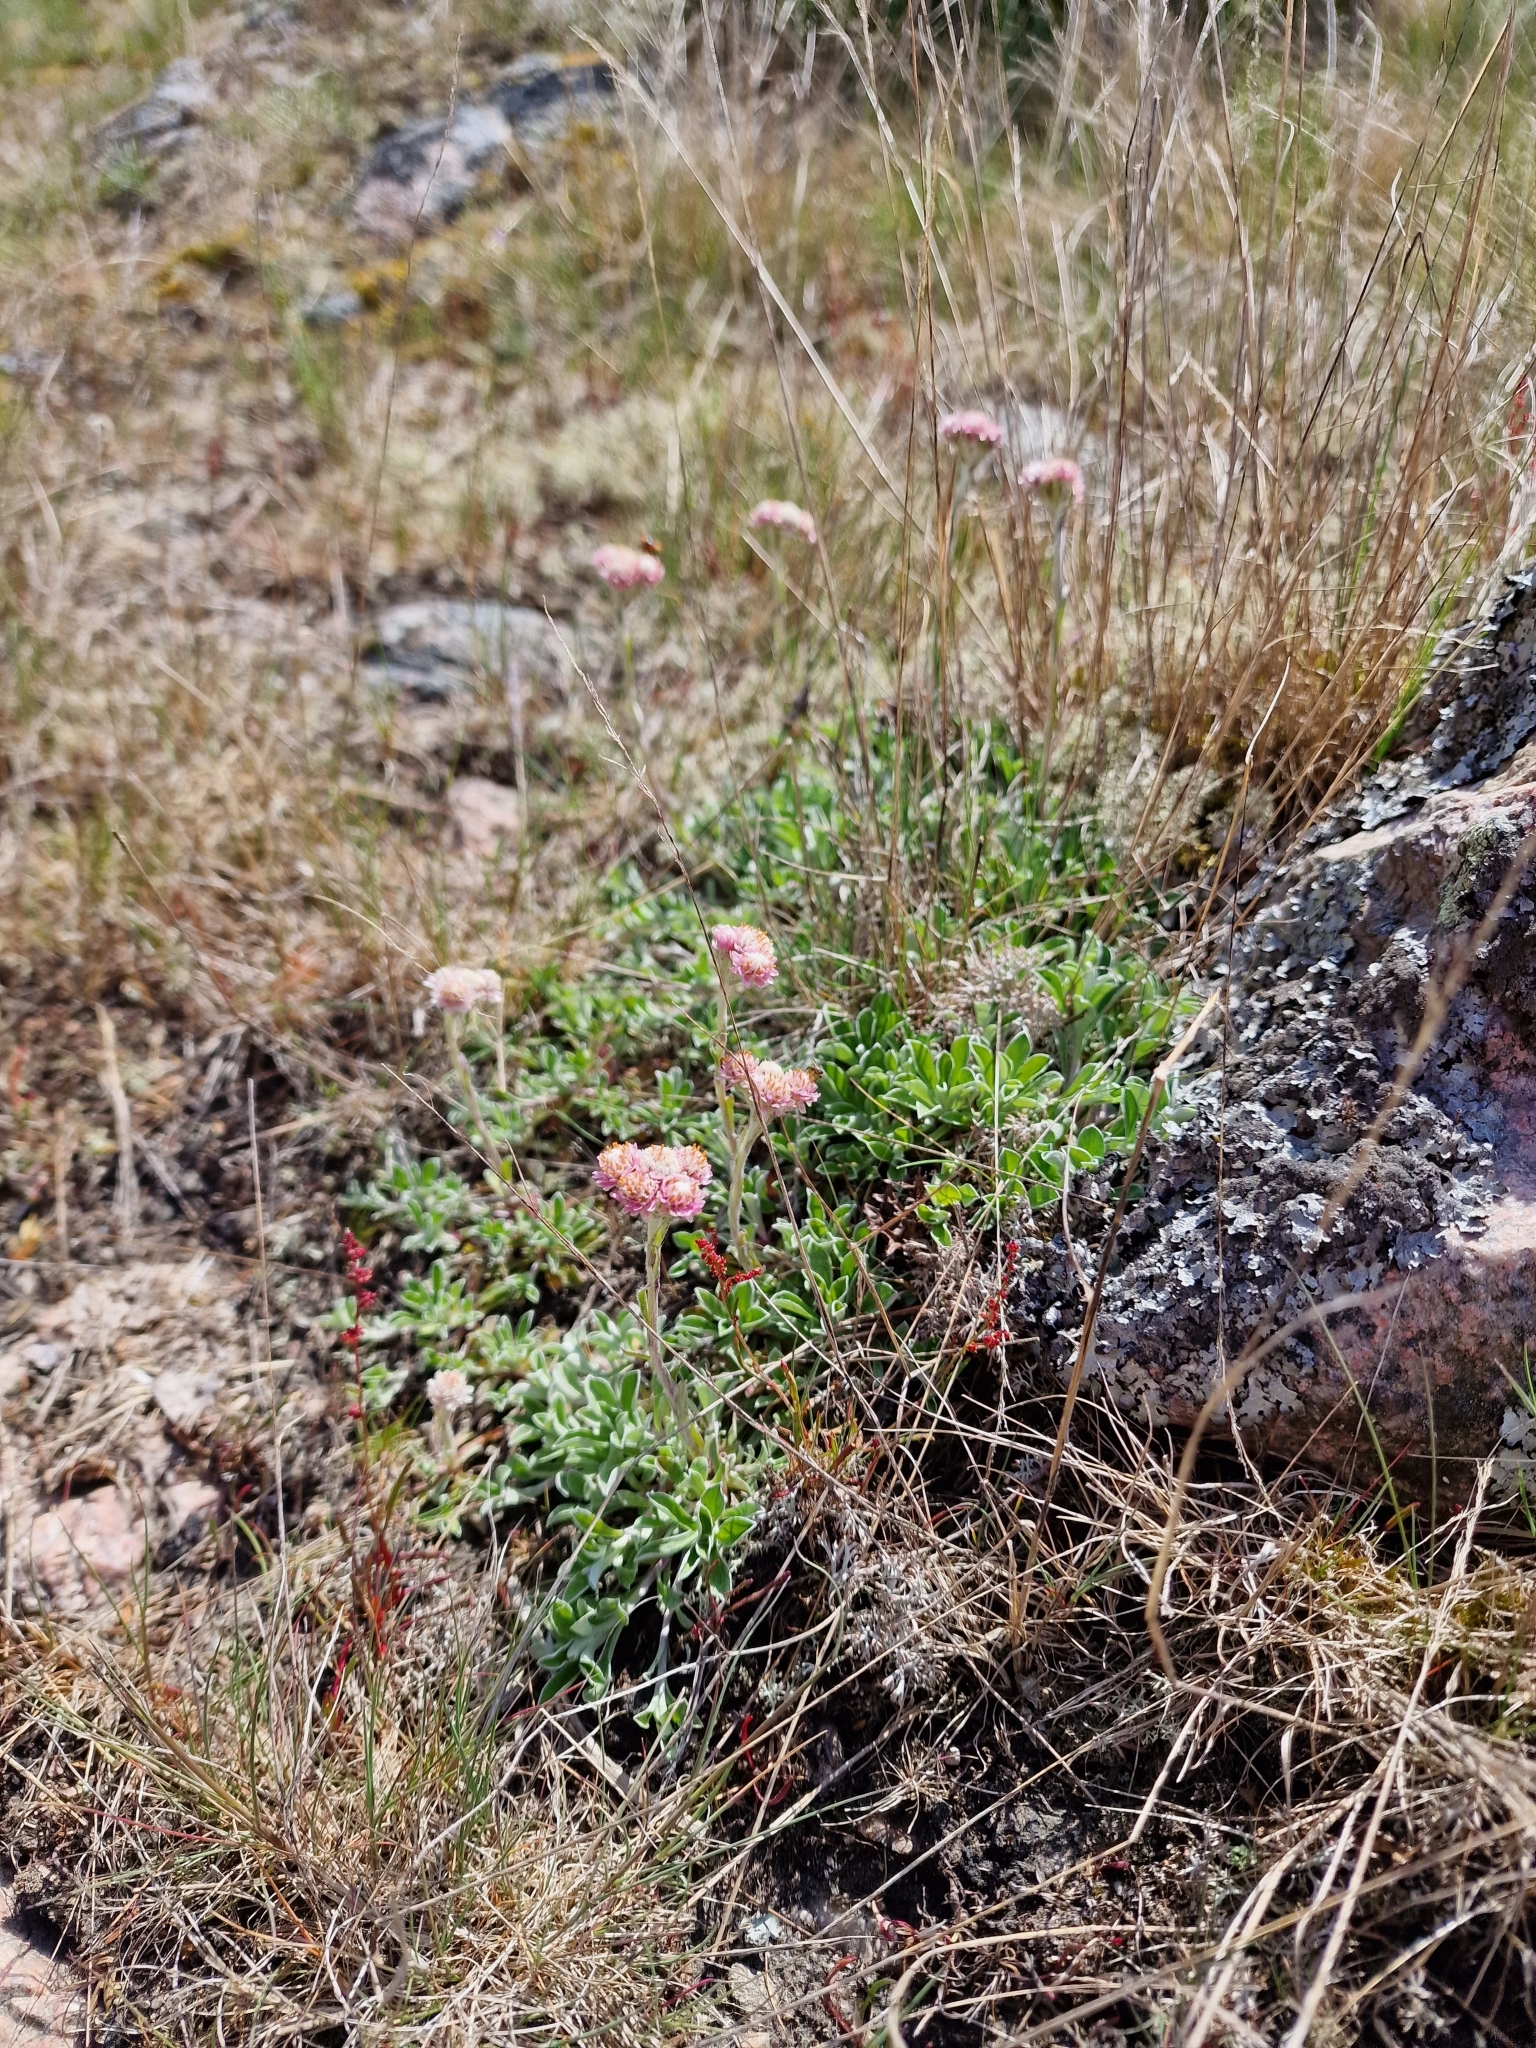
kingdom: Plantae
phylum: Tracheophyta
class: Magnoliopsida
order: Asterales
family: Asteraceae
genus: Antennaria
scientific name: Antennaria dioica
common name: Mountain everlasting
